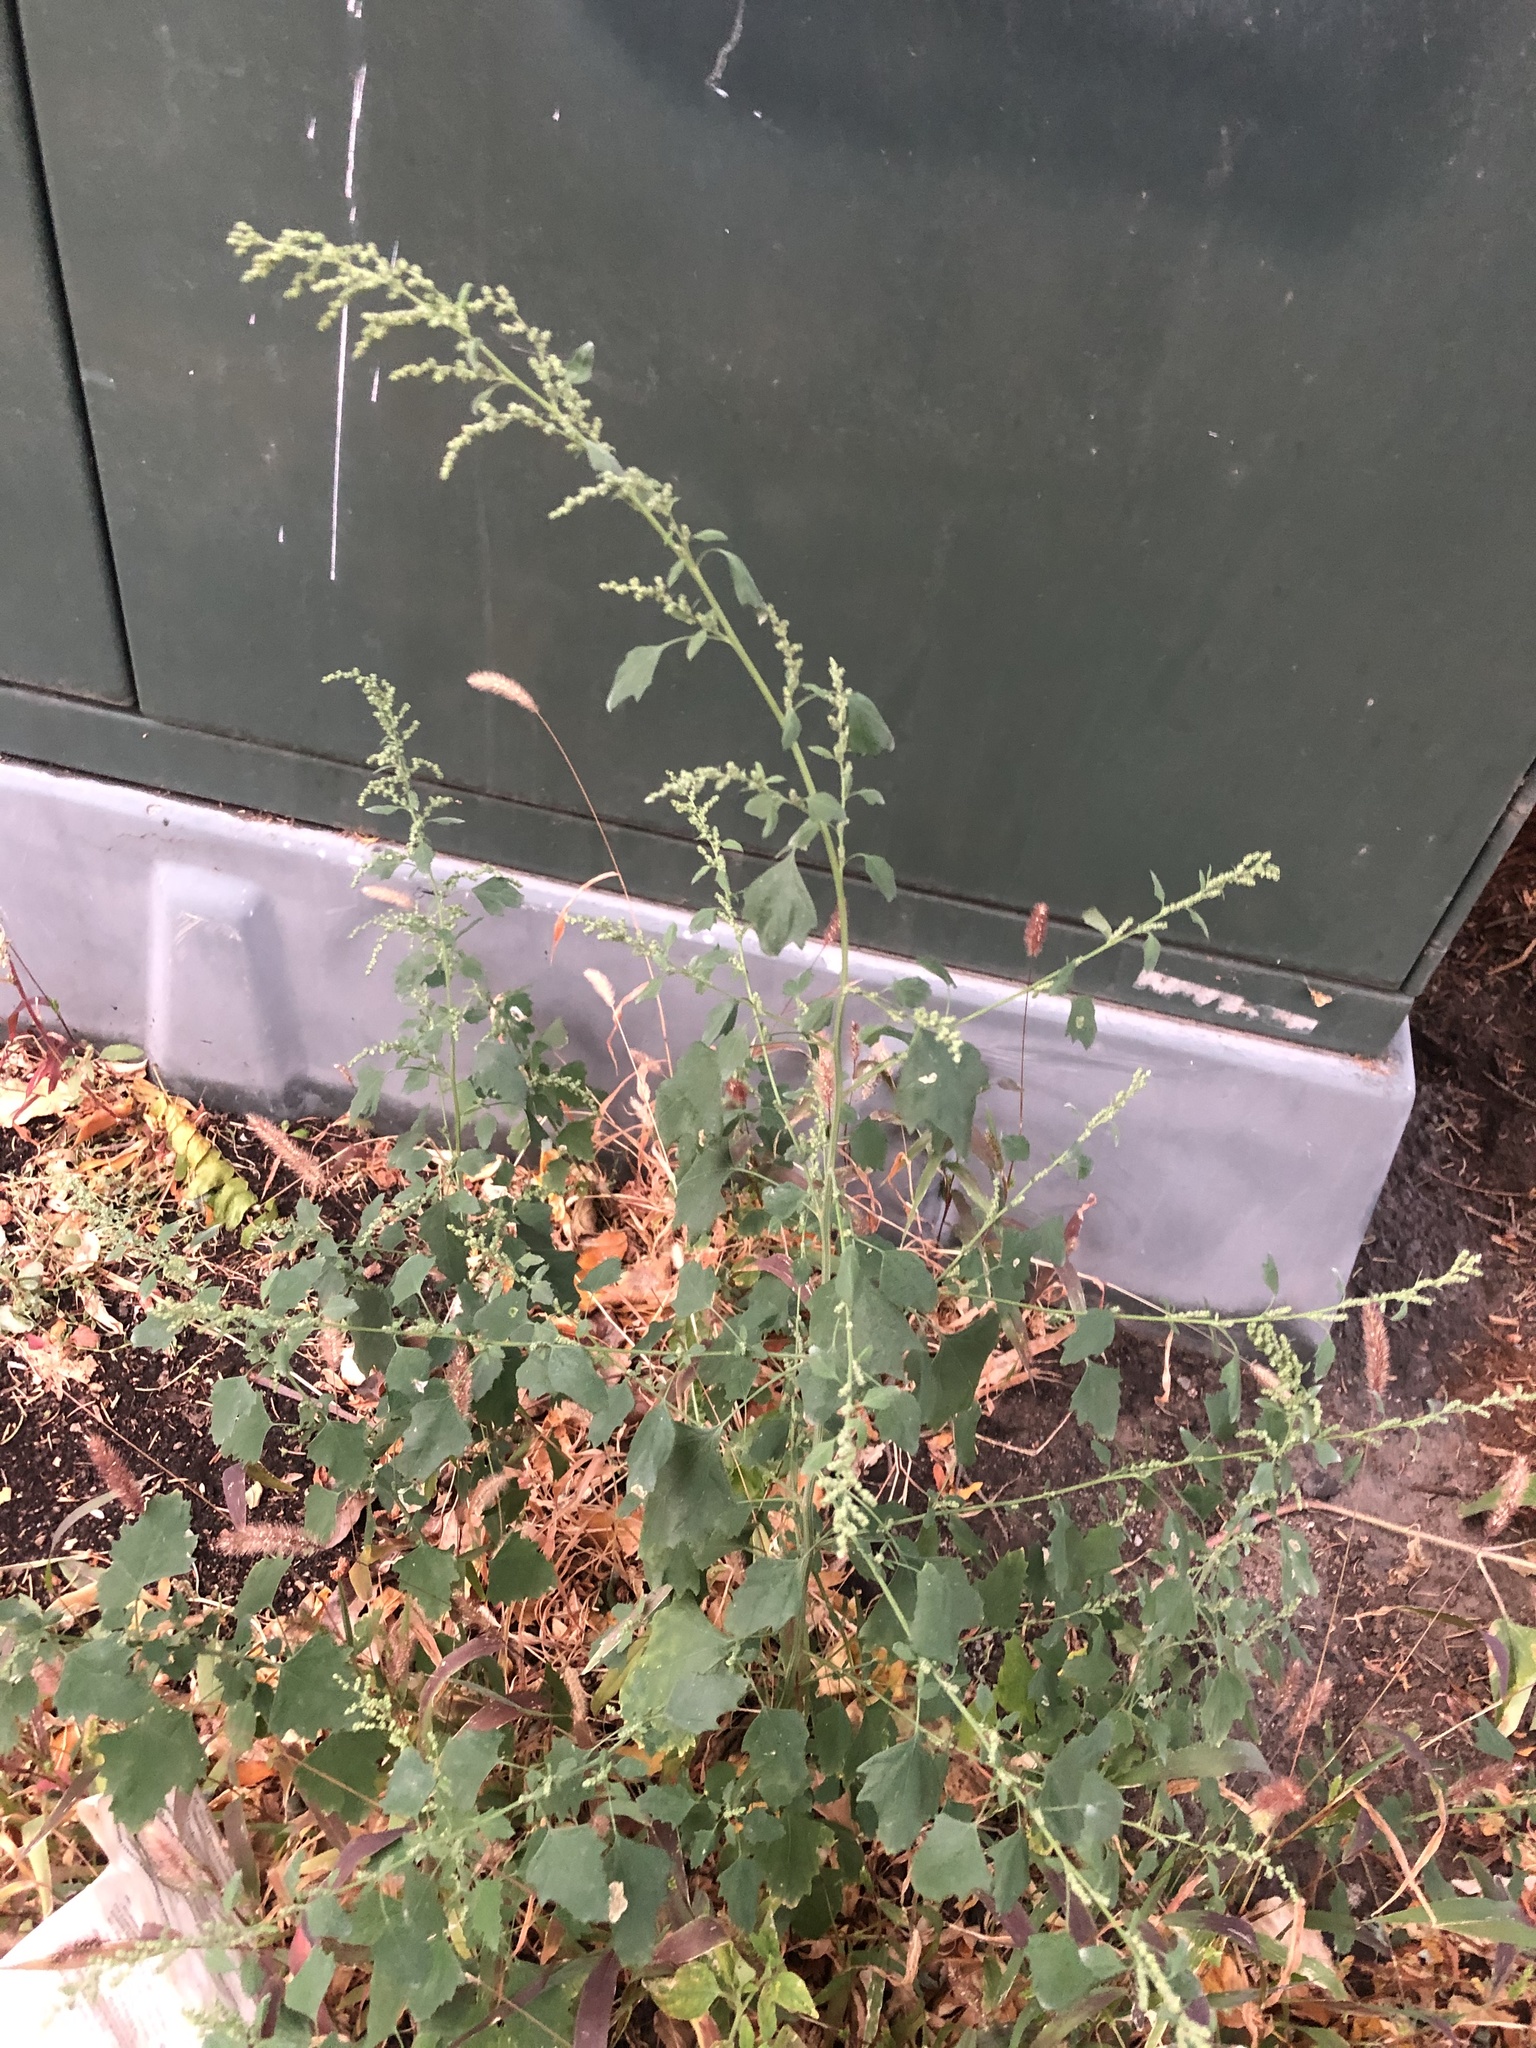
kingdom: Plantae
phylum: Tracheophyta
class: Magnoliopsida
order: Caryophyllales
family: Amaranthaceae
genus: Chenopodium
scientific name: Chenopodium album
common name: Fat-hen
